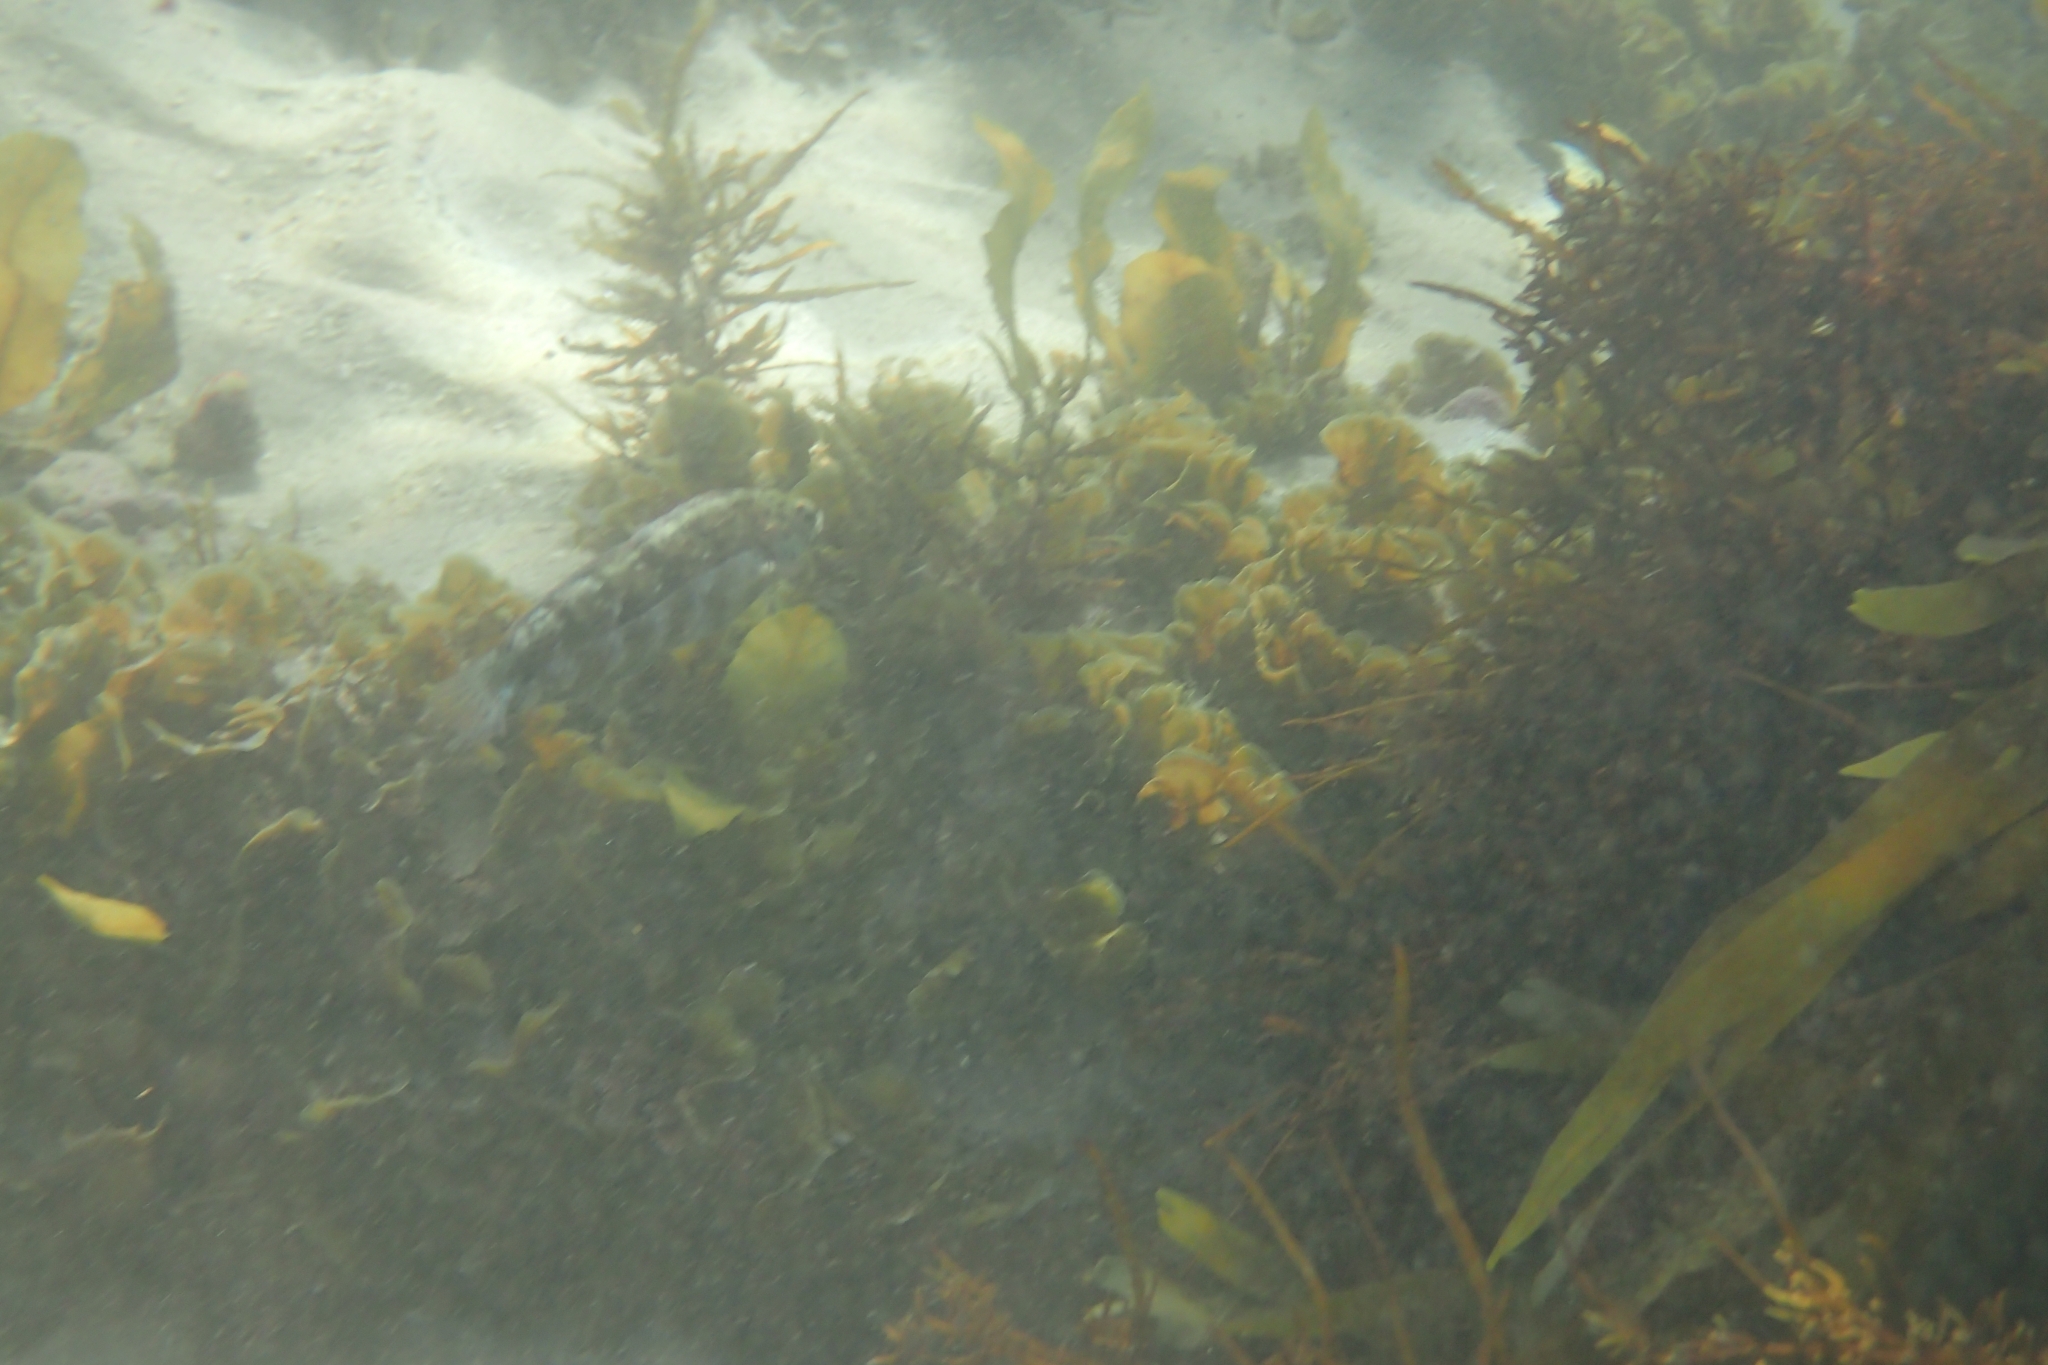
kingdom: Animalia
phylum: Chordata
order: Perciformes
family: Labridae
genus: Eupetrichthys
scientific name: Eupetrichthys angustipes
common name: Snake-skin wrasse
